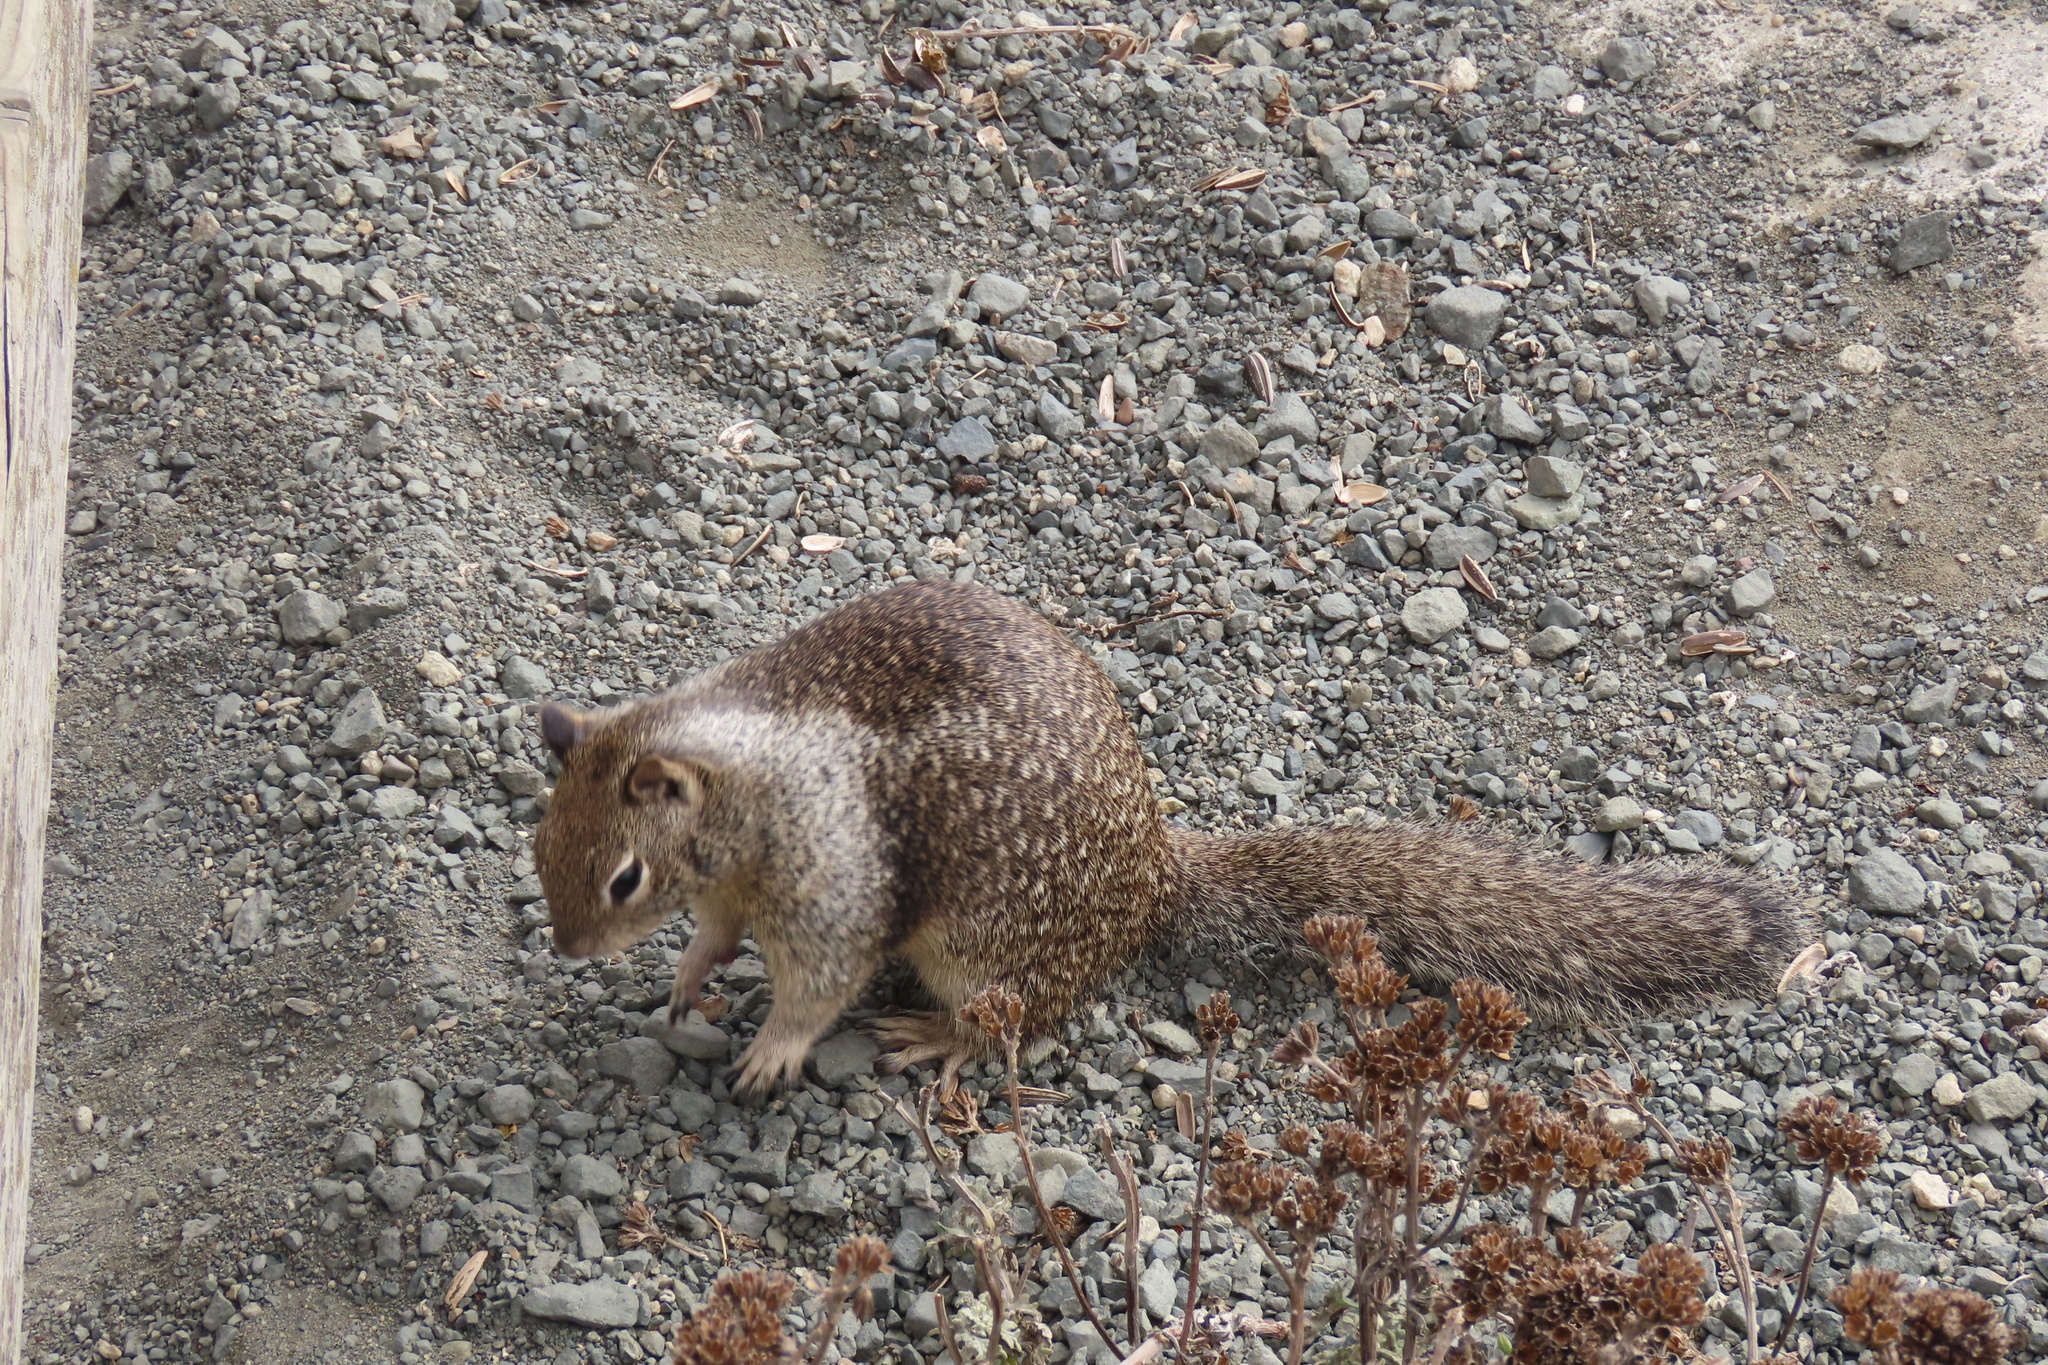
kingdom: Animalia
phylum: Chordata
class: Mammalia
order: Rodentia
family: Sciuridae
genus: Otospermophilus
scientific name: Otospermophilus beecheyi
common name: California ground squirrel
